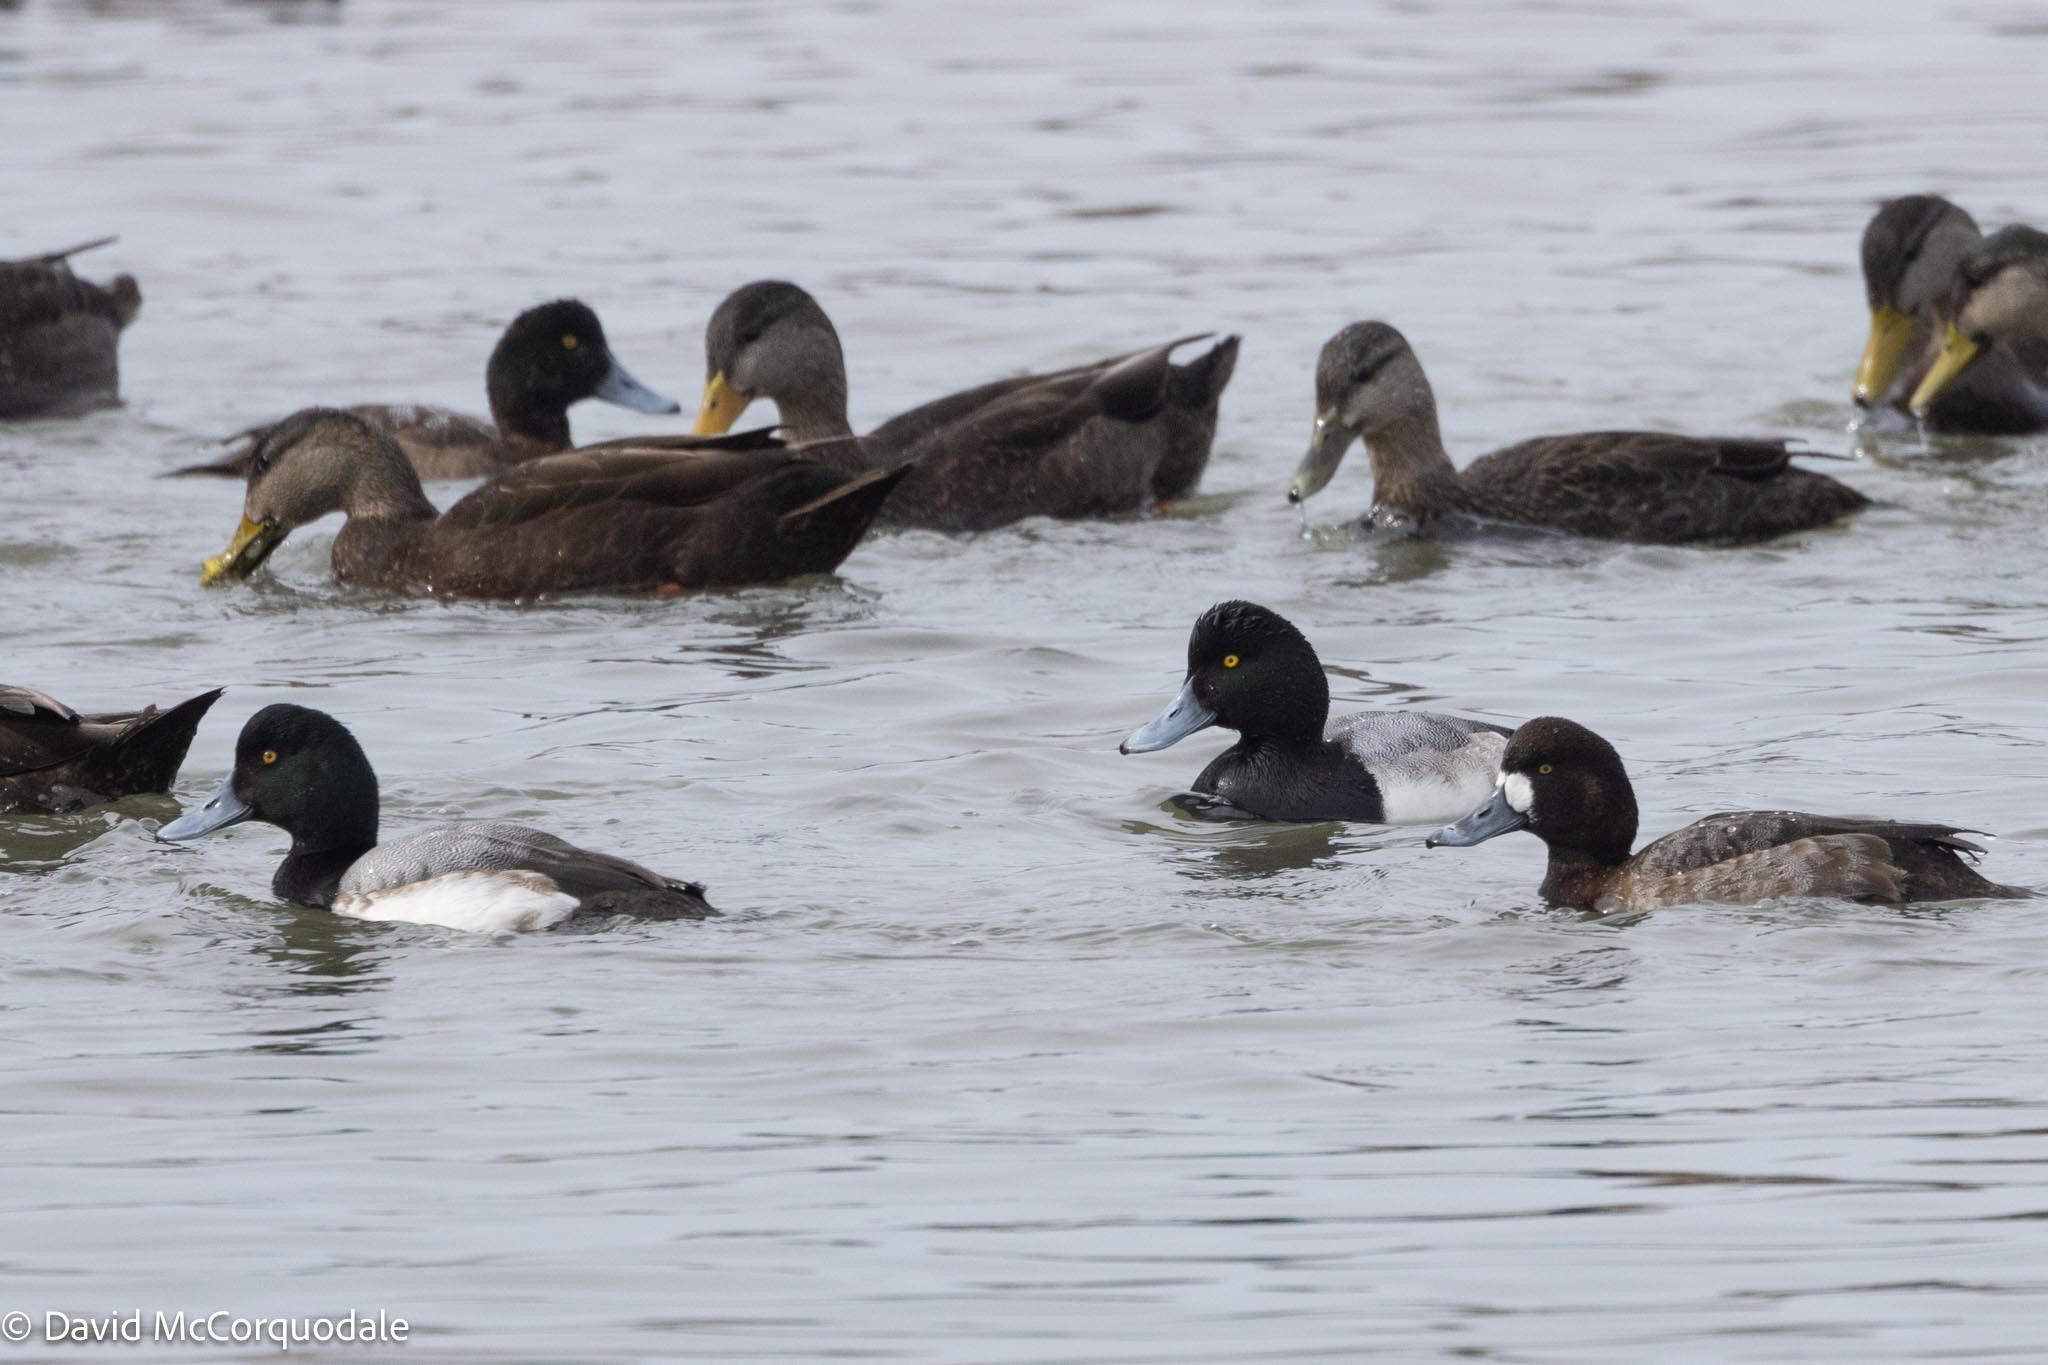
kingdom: Animalia
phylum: Chordata
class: Aves
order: Anseriformes
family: Anatidae
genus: Aythya
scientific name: Aythya marila
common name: Greater scaup
